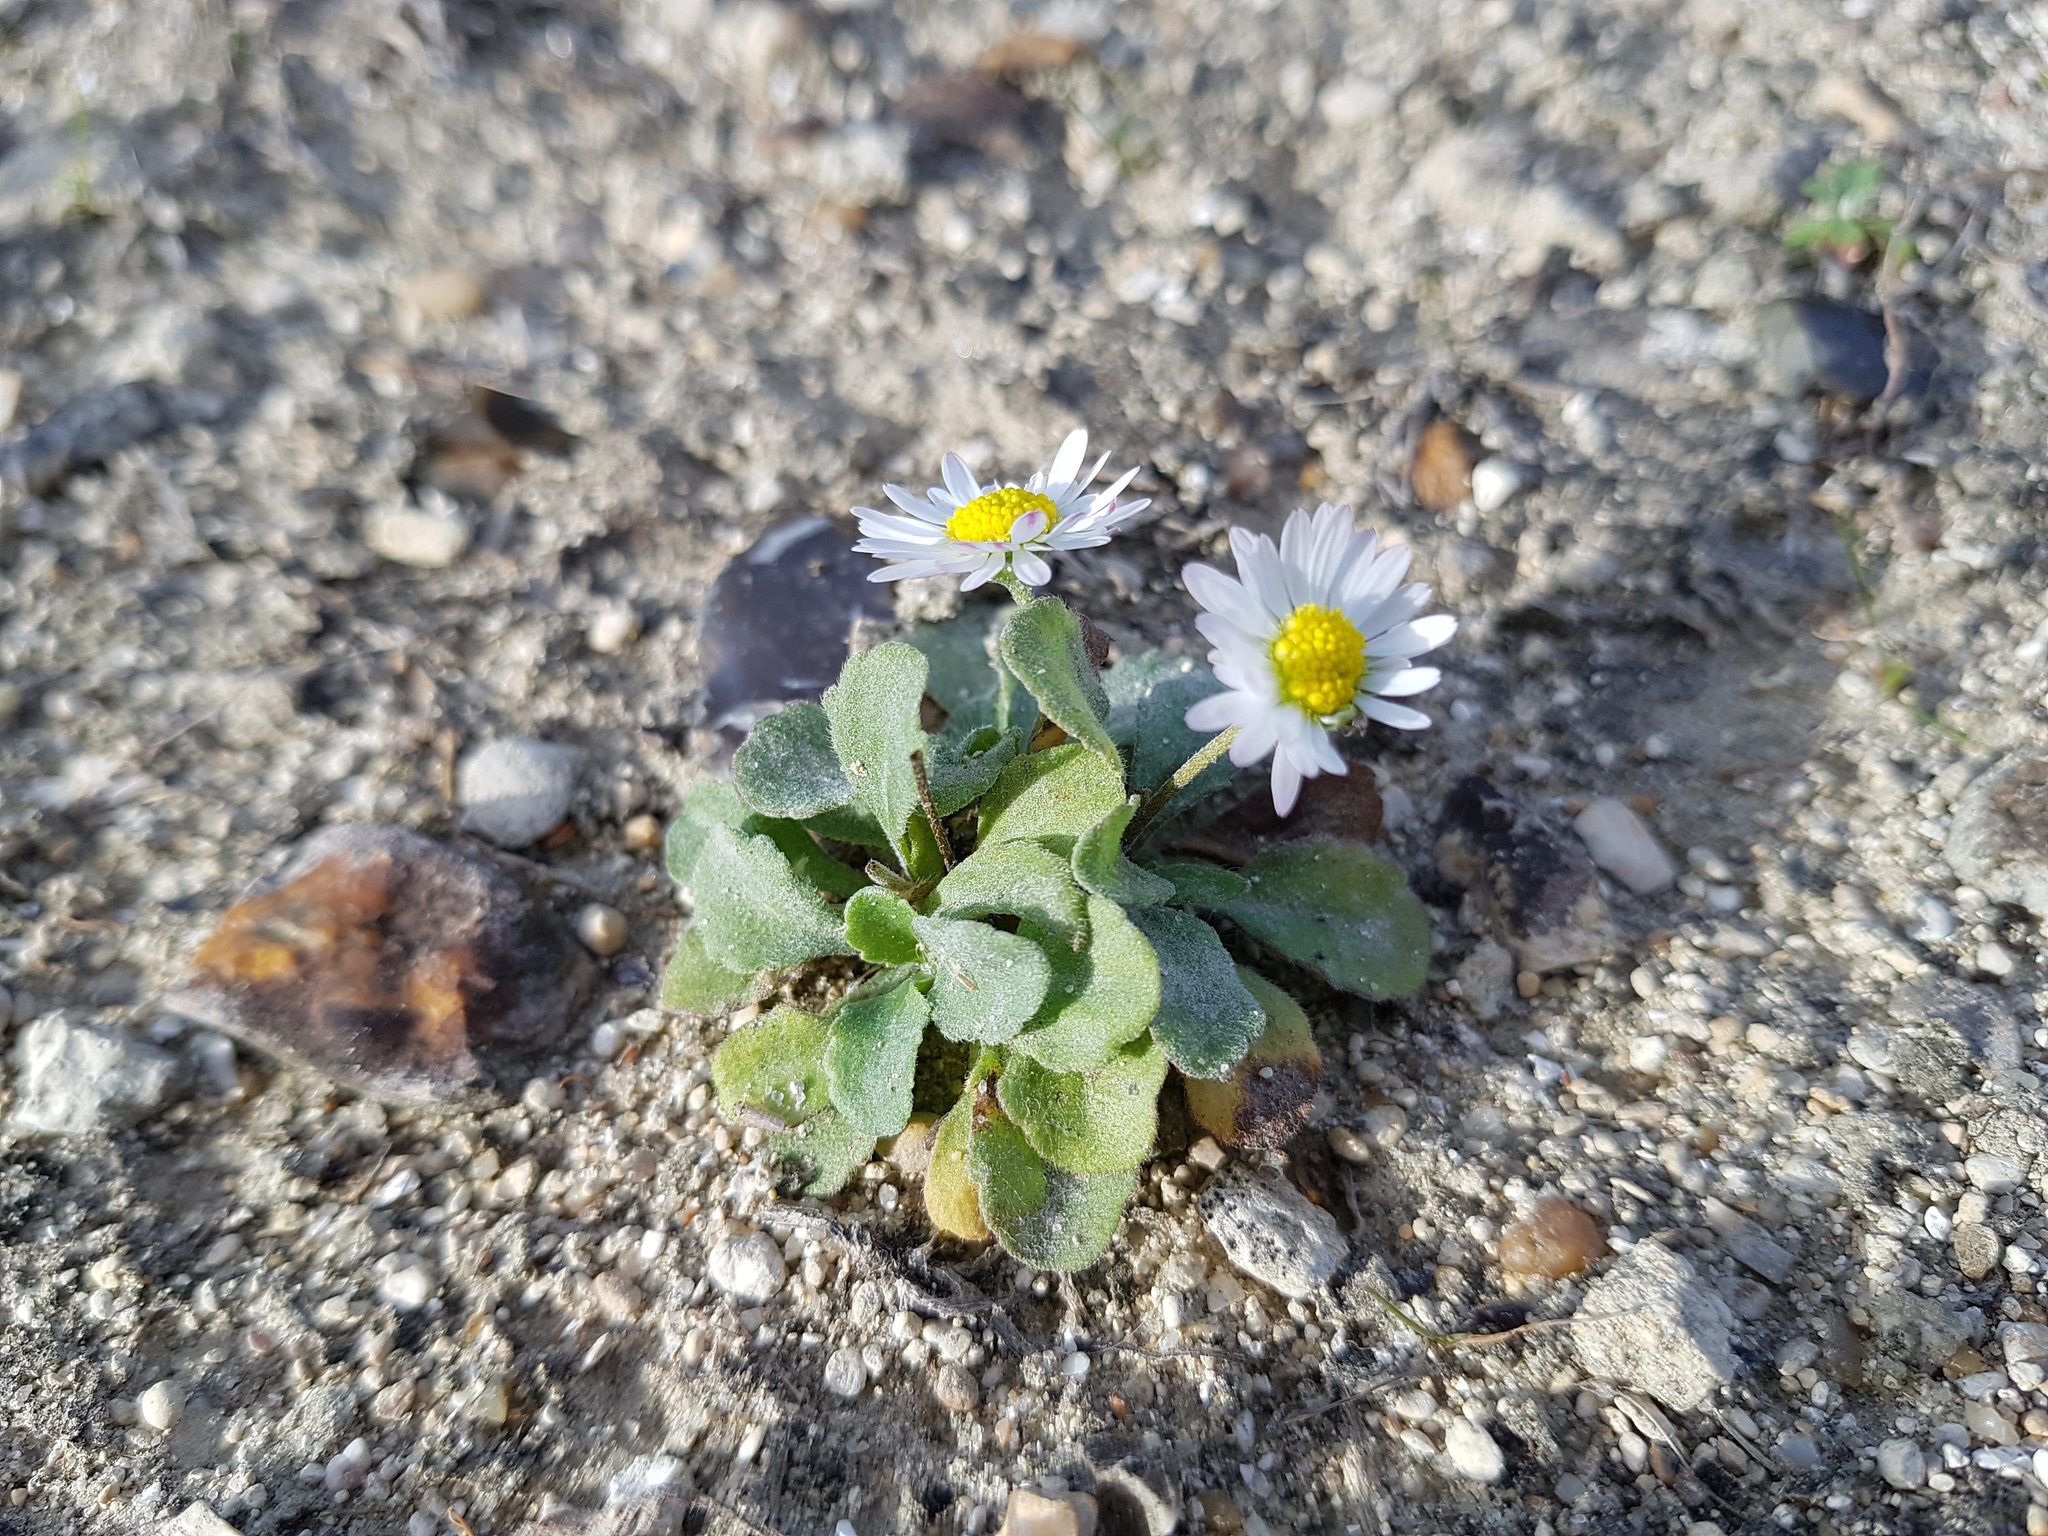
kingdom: Plantae
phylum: Tracheophyta
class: Magnoliopsida
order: Asterales
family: Asteraceae
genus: Bellis
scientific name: Bellis perennis
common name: Lawndaisy
